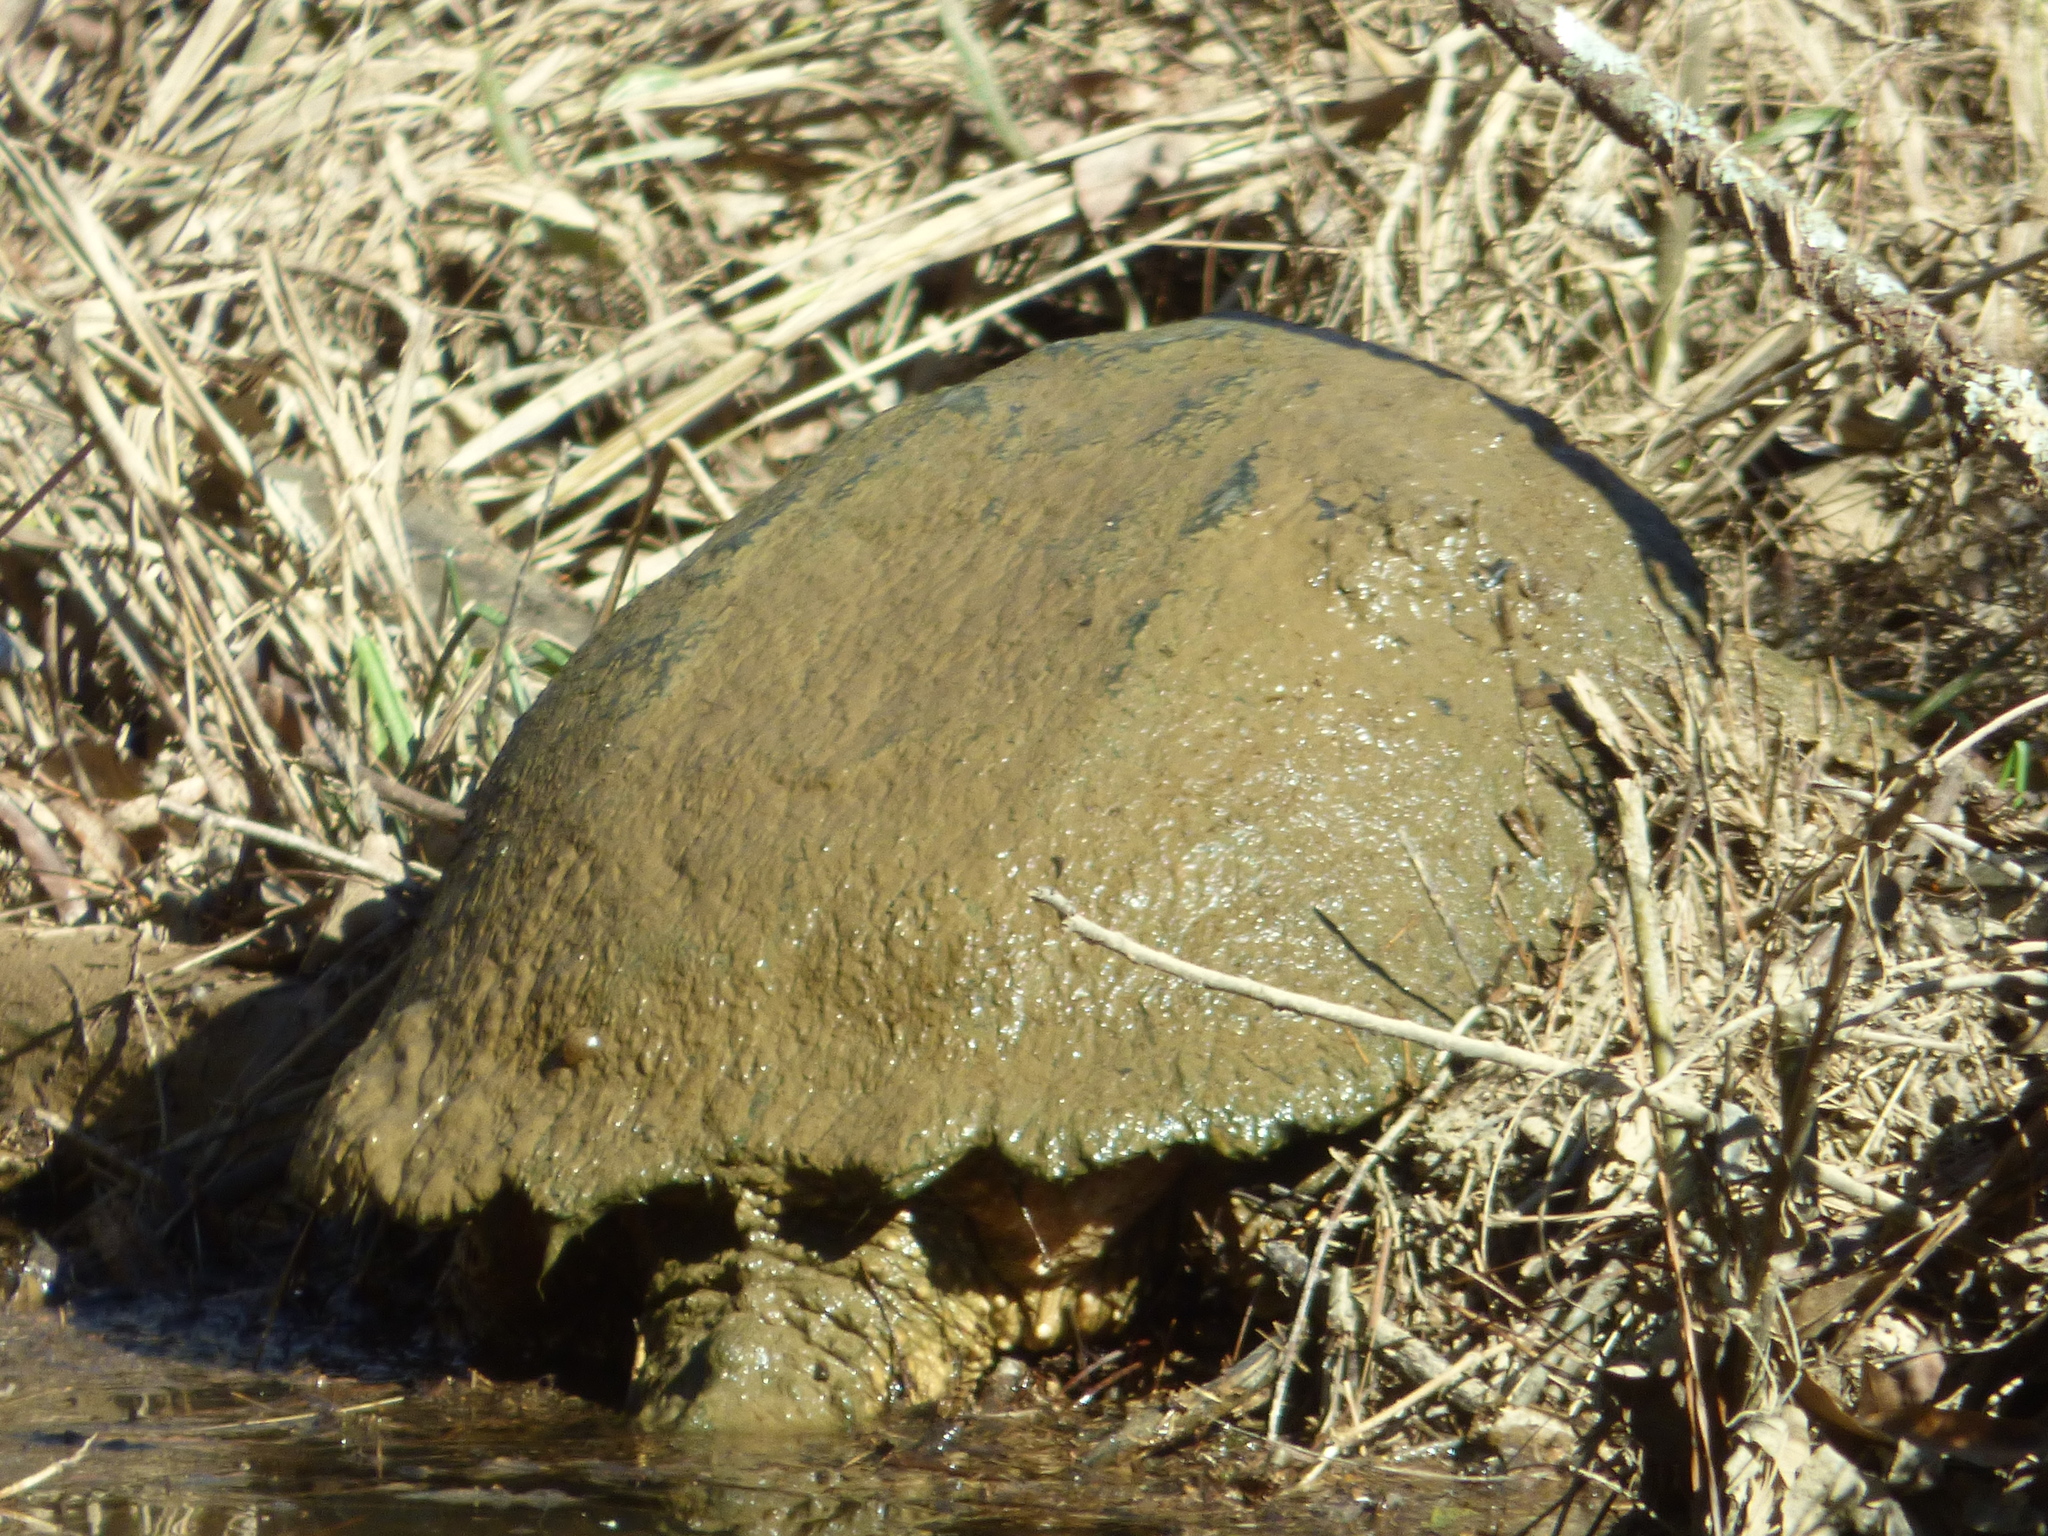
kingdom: Animalia
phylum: Chordata
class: Testudines
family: Chelydridae
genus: Chelydra
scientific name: Chelydra serpentina
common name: Common snapping turtle
